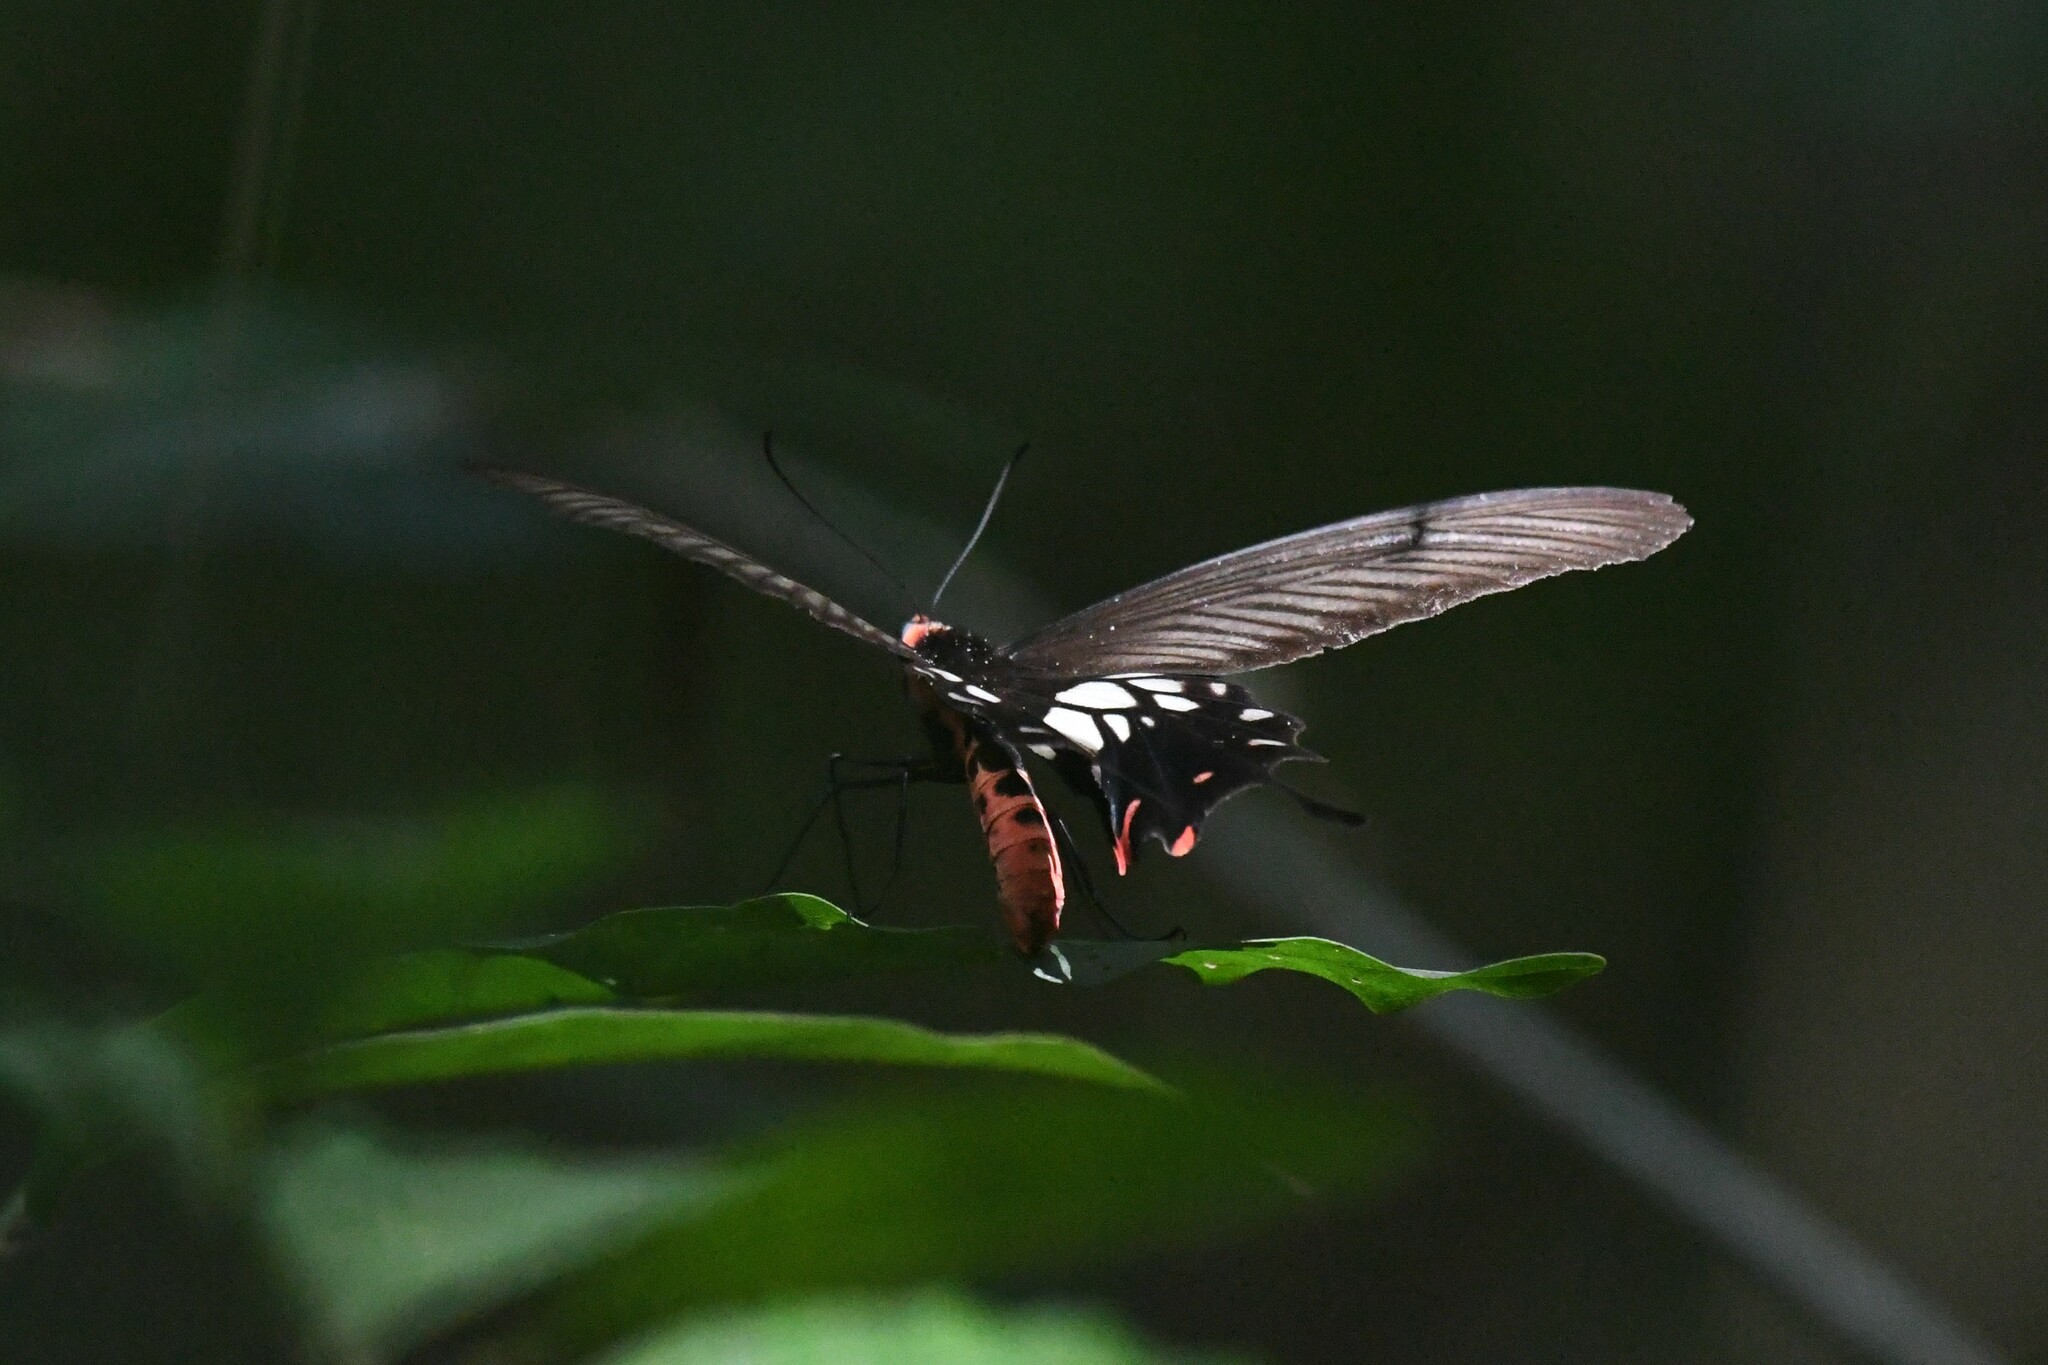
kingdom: Animalia
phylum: Arthropoda
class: Insecta
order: Lepidoptera
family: Papilionidae
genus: Losaria
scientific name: Losaria
